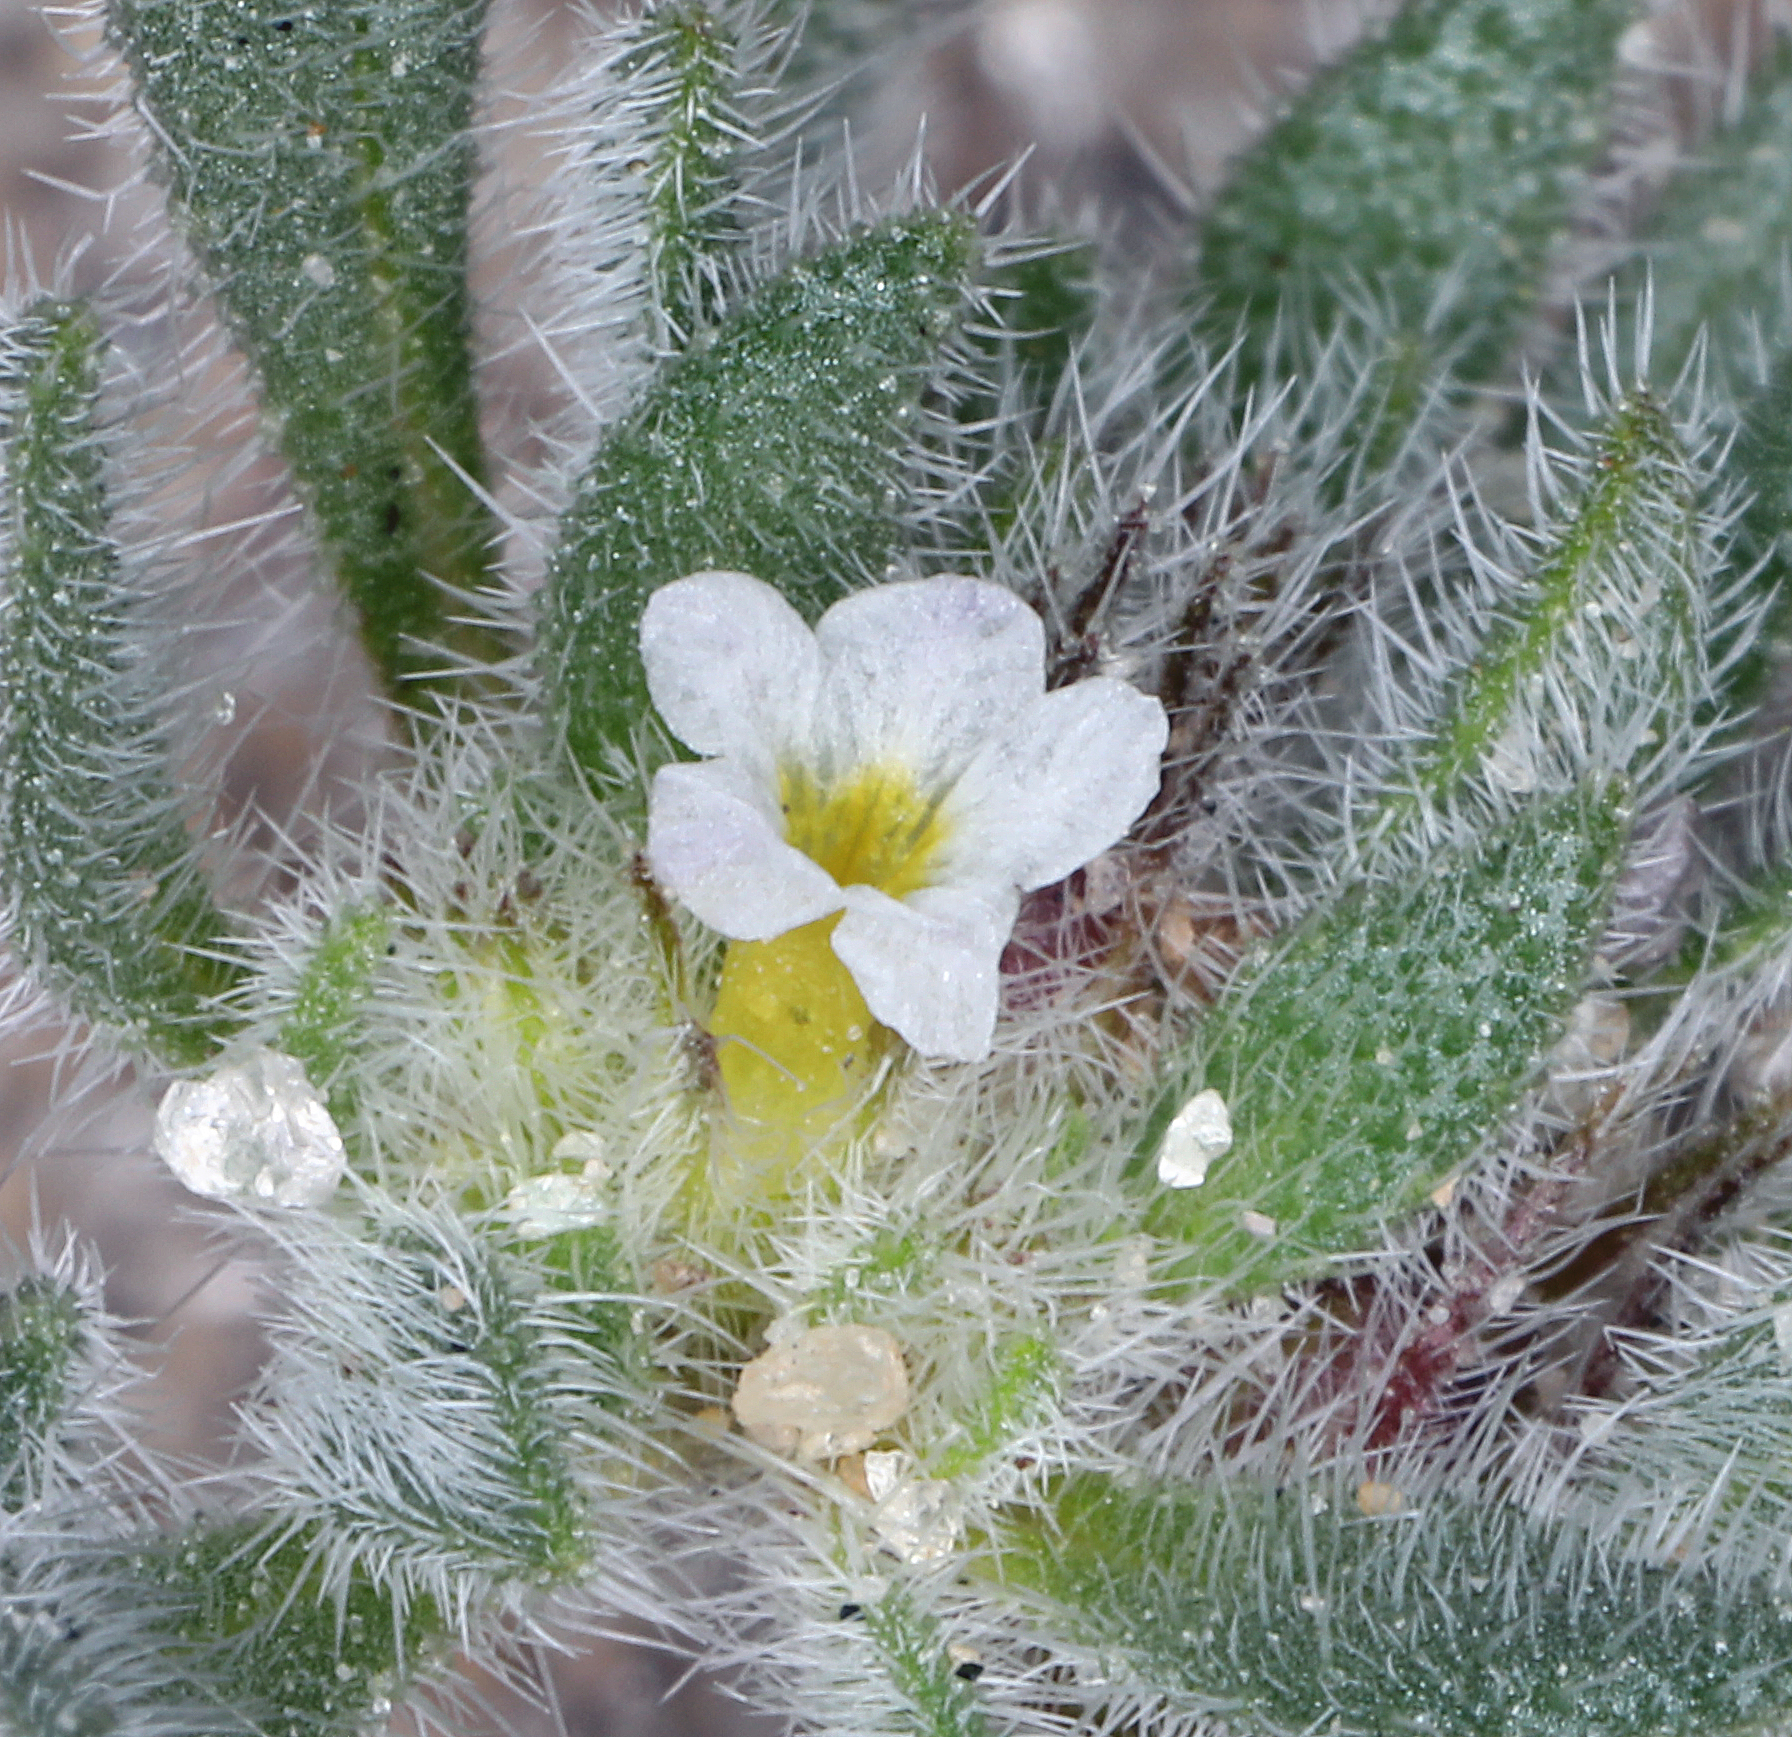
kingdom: Plantae
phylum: Tracheophyta
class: Magnoliopsida
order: Boraginales
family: Namaceae
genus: Nama
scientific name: Nama densa
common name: Leafy nama
